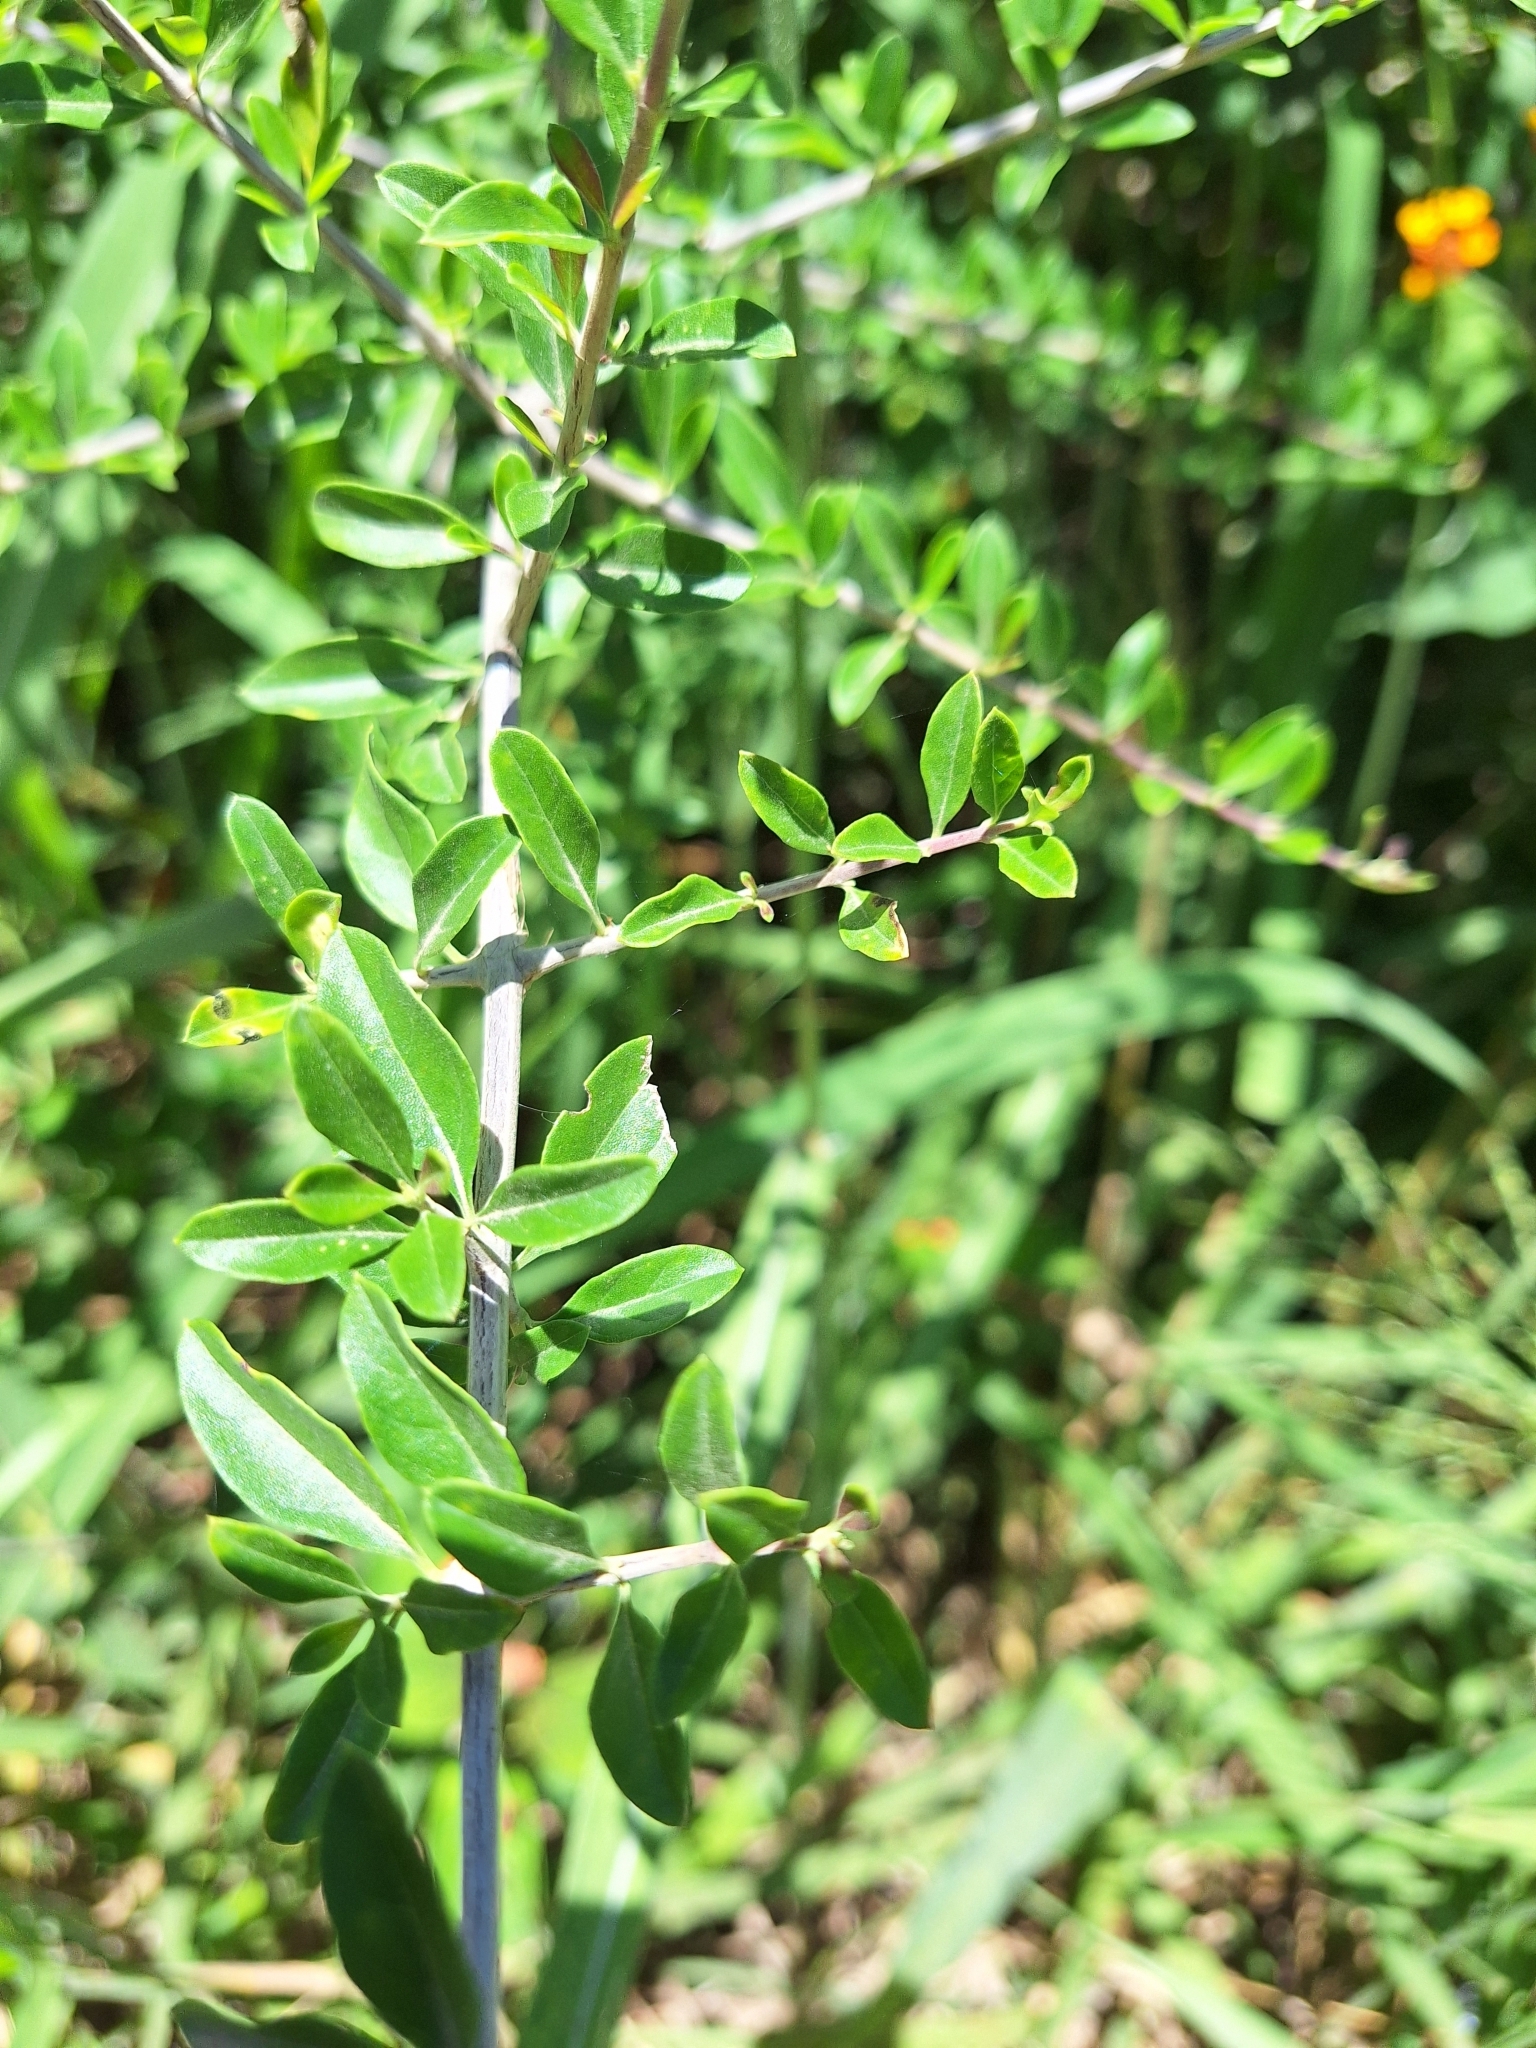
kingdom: Plantae
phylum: Tracheophyta
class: Magnoliopsida
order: Lamiales
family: Verbenaceae
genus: Aloysia
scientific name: Aloysia gratissima
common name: Common bee-brush
